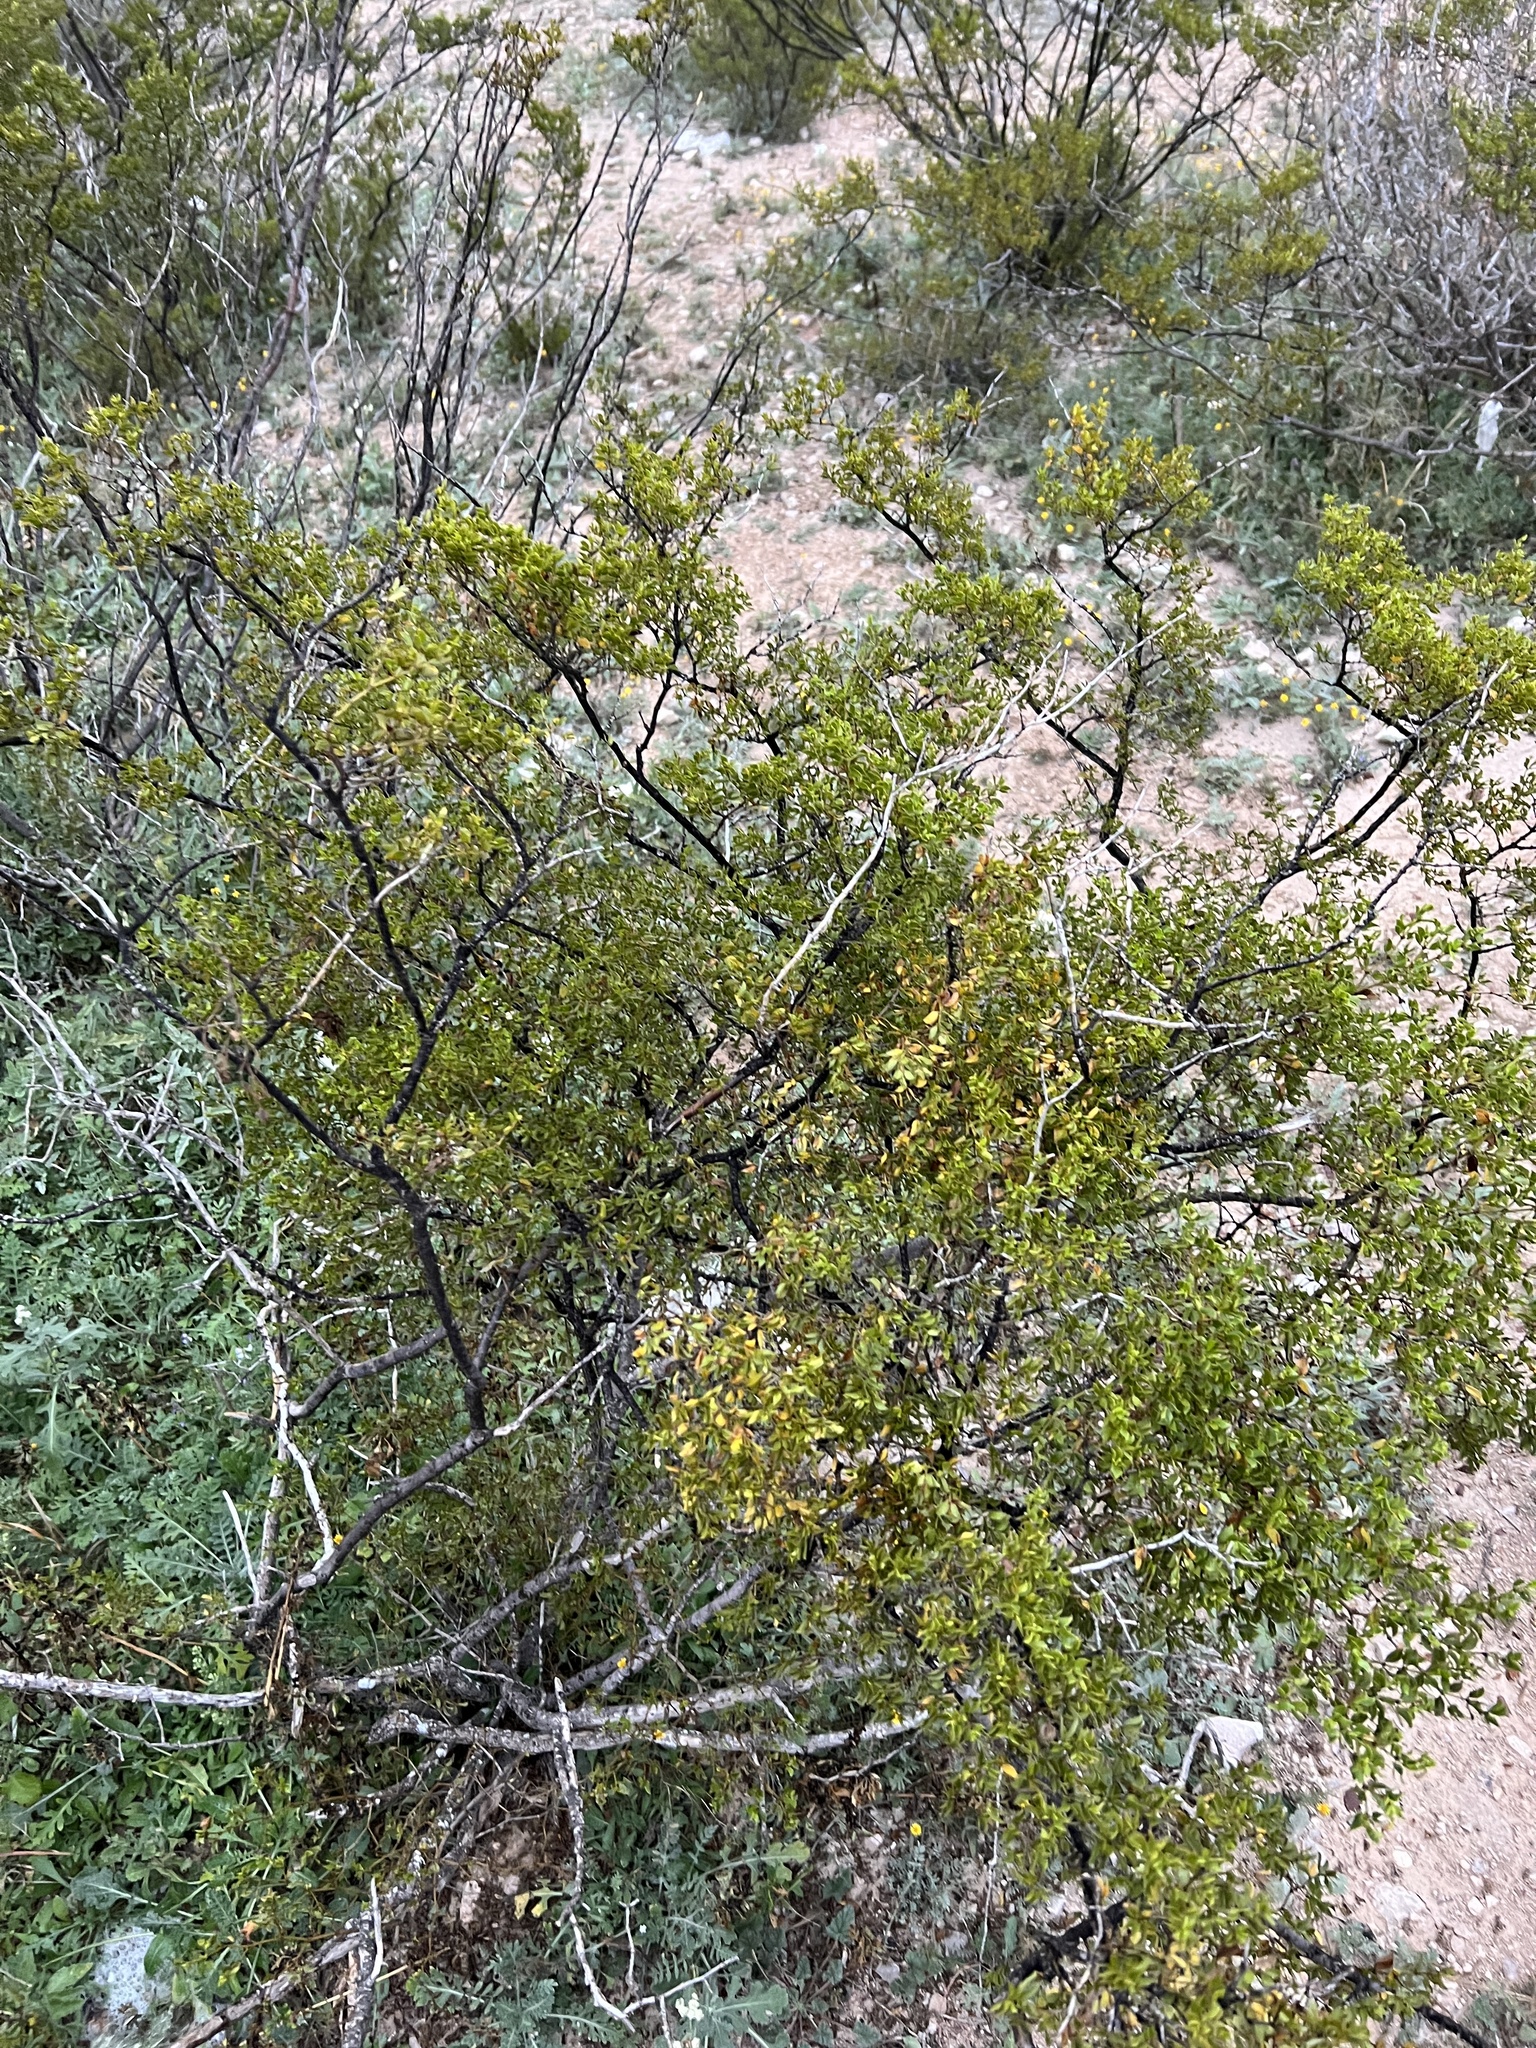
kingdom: Plantae
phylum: Tracheophyta
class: Magnoliopsida
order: Zygophyllales
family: Zygophyllaceae
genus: Larrea
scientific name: Larrea tridentata
